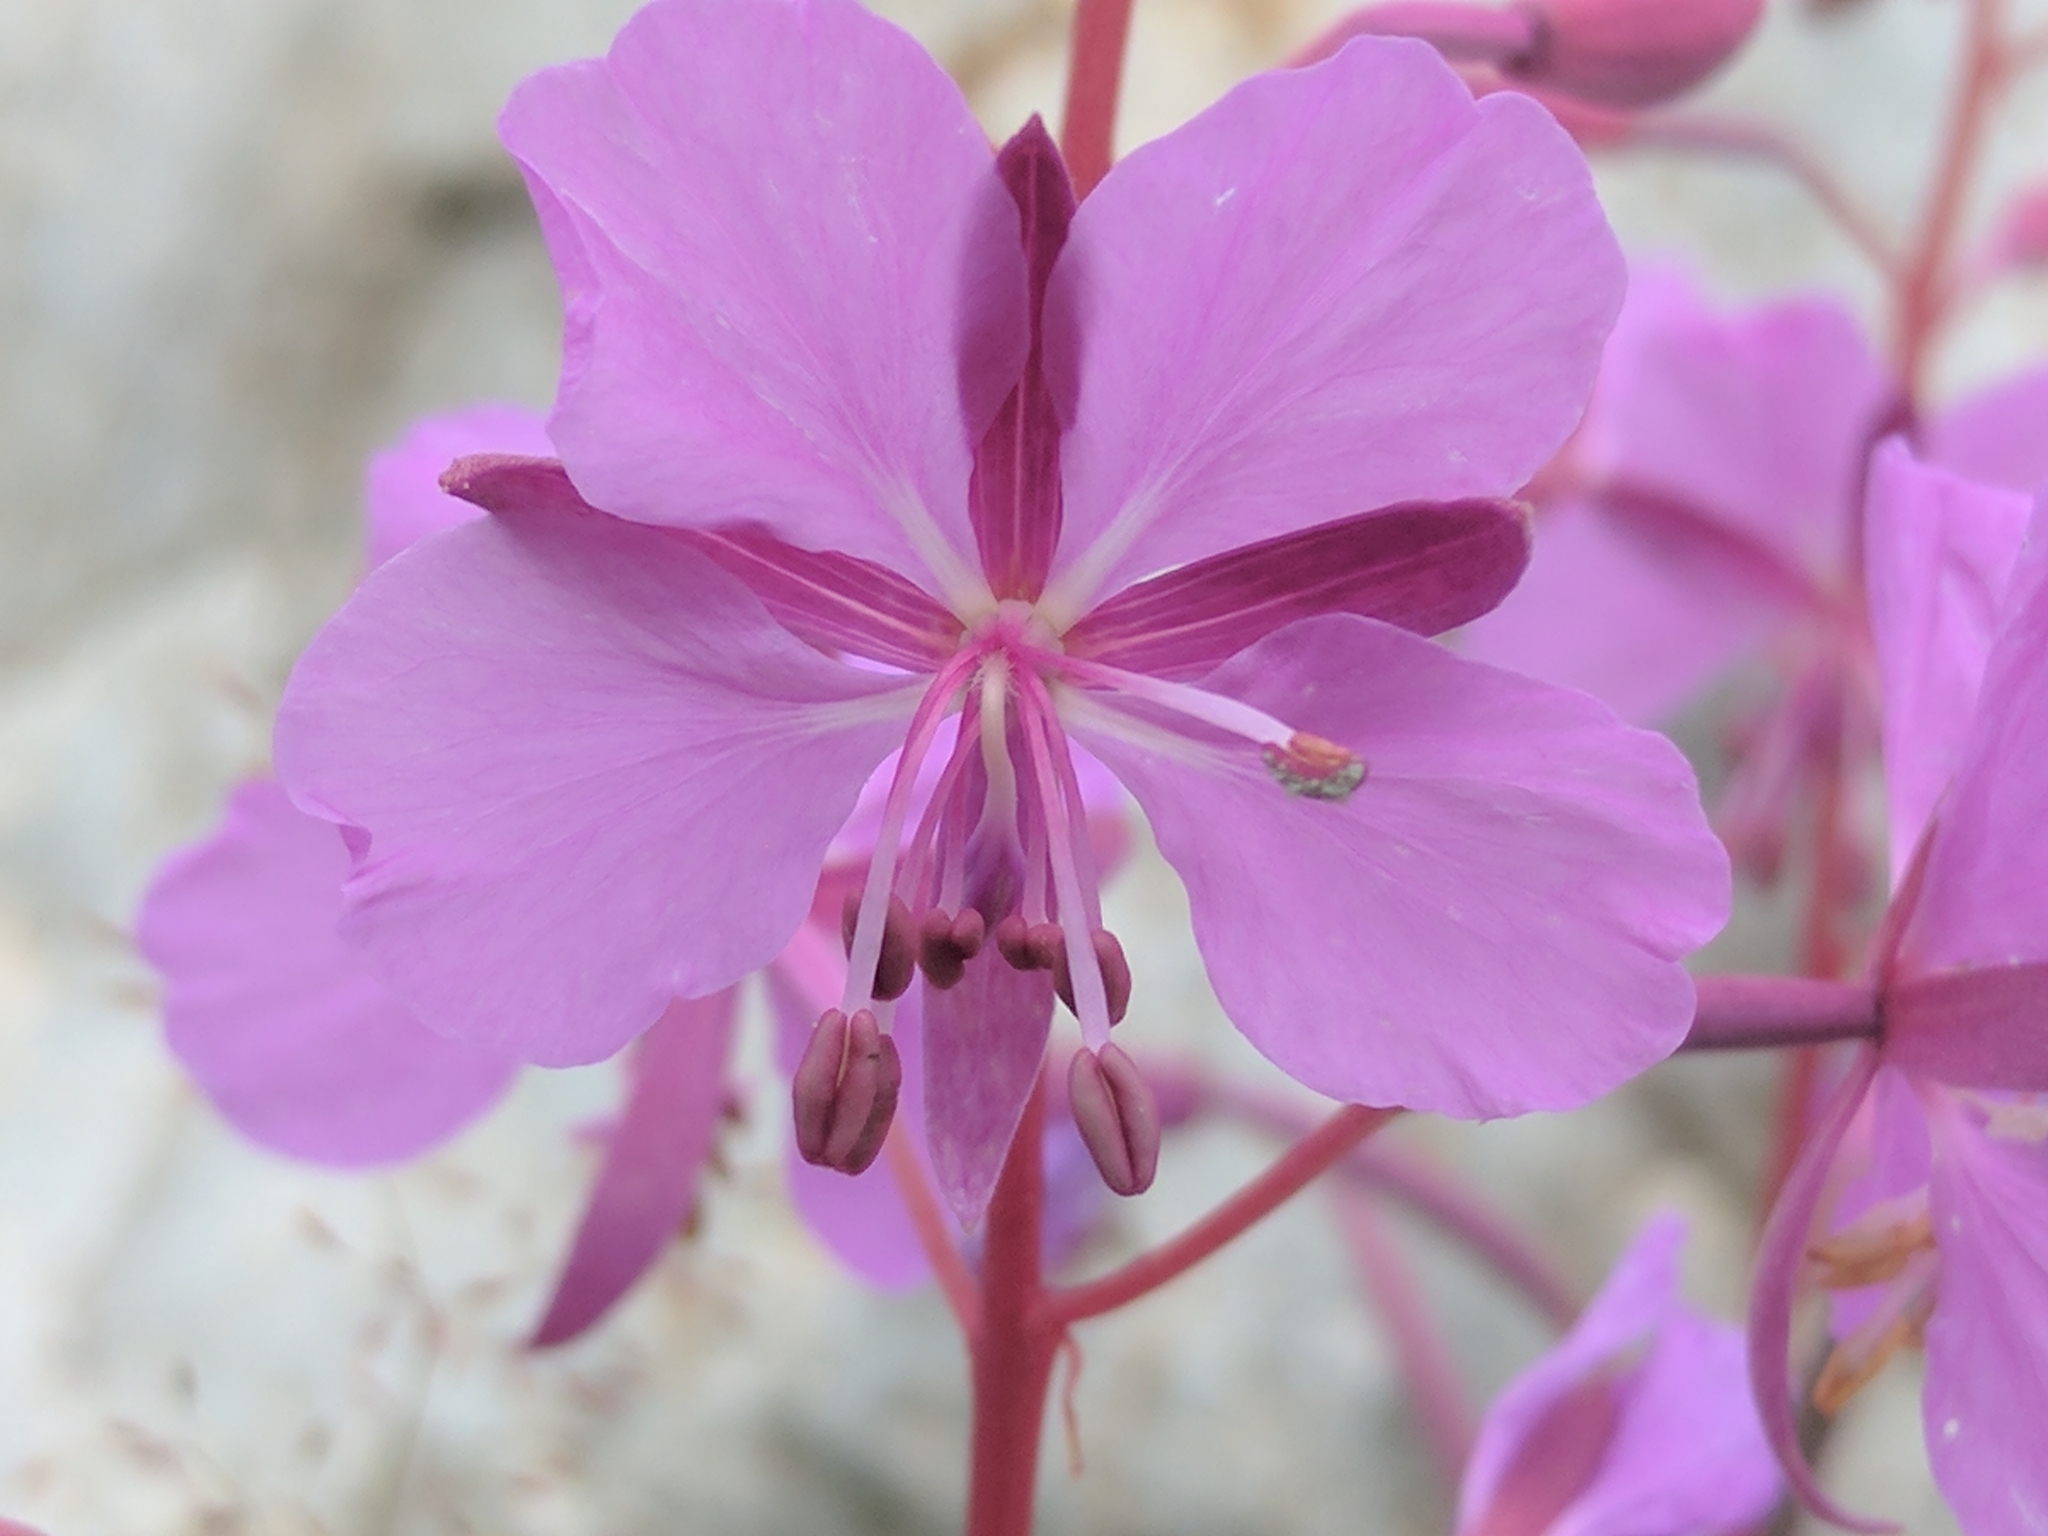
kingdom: Plantae
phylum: Tracheophyta
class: Magnoliopsida
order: Myrtales
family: Onagraceae
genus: Chamaenerion
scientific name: Chamaenerion fleischeri
